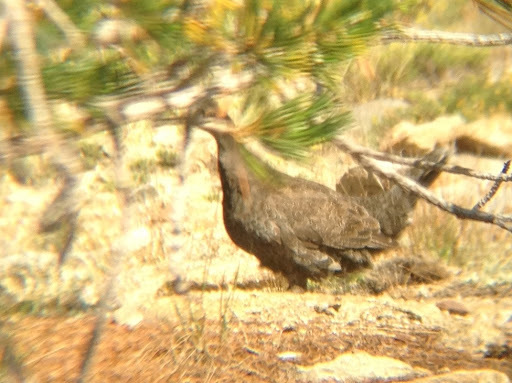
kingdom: Animalia
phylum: Chordata
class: Aves
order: Galliformes
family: Phasianidae
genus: Dendragapus
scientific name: Dendragapus fuliginosus
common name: Sooty grouse
